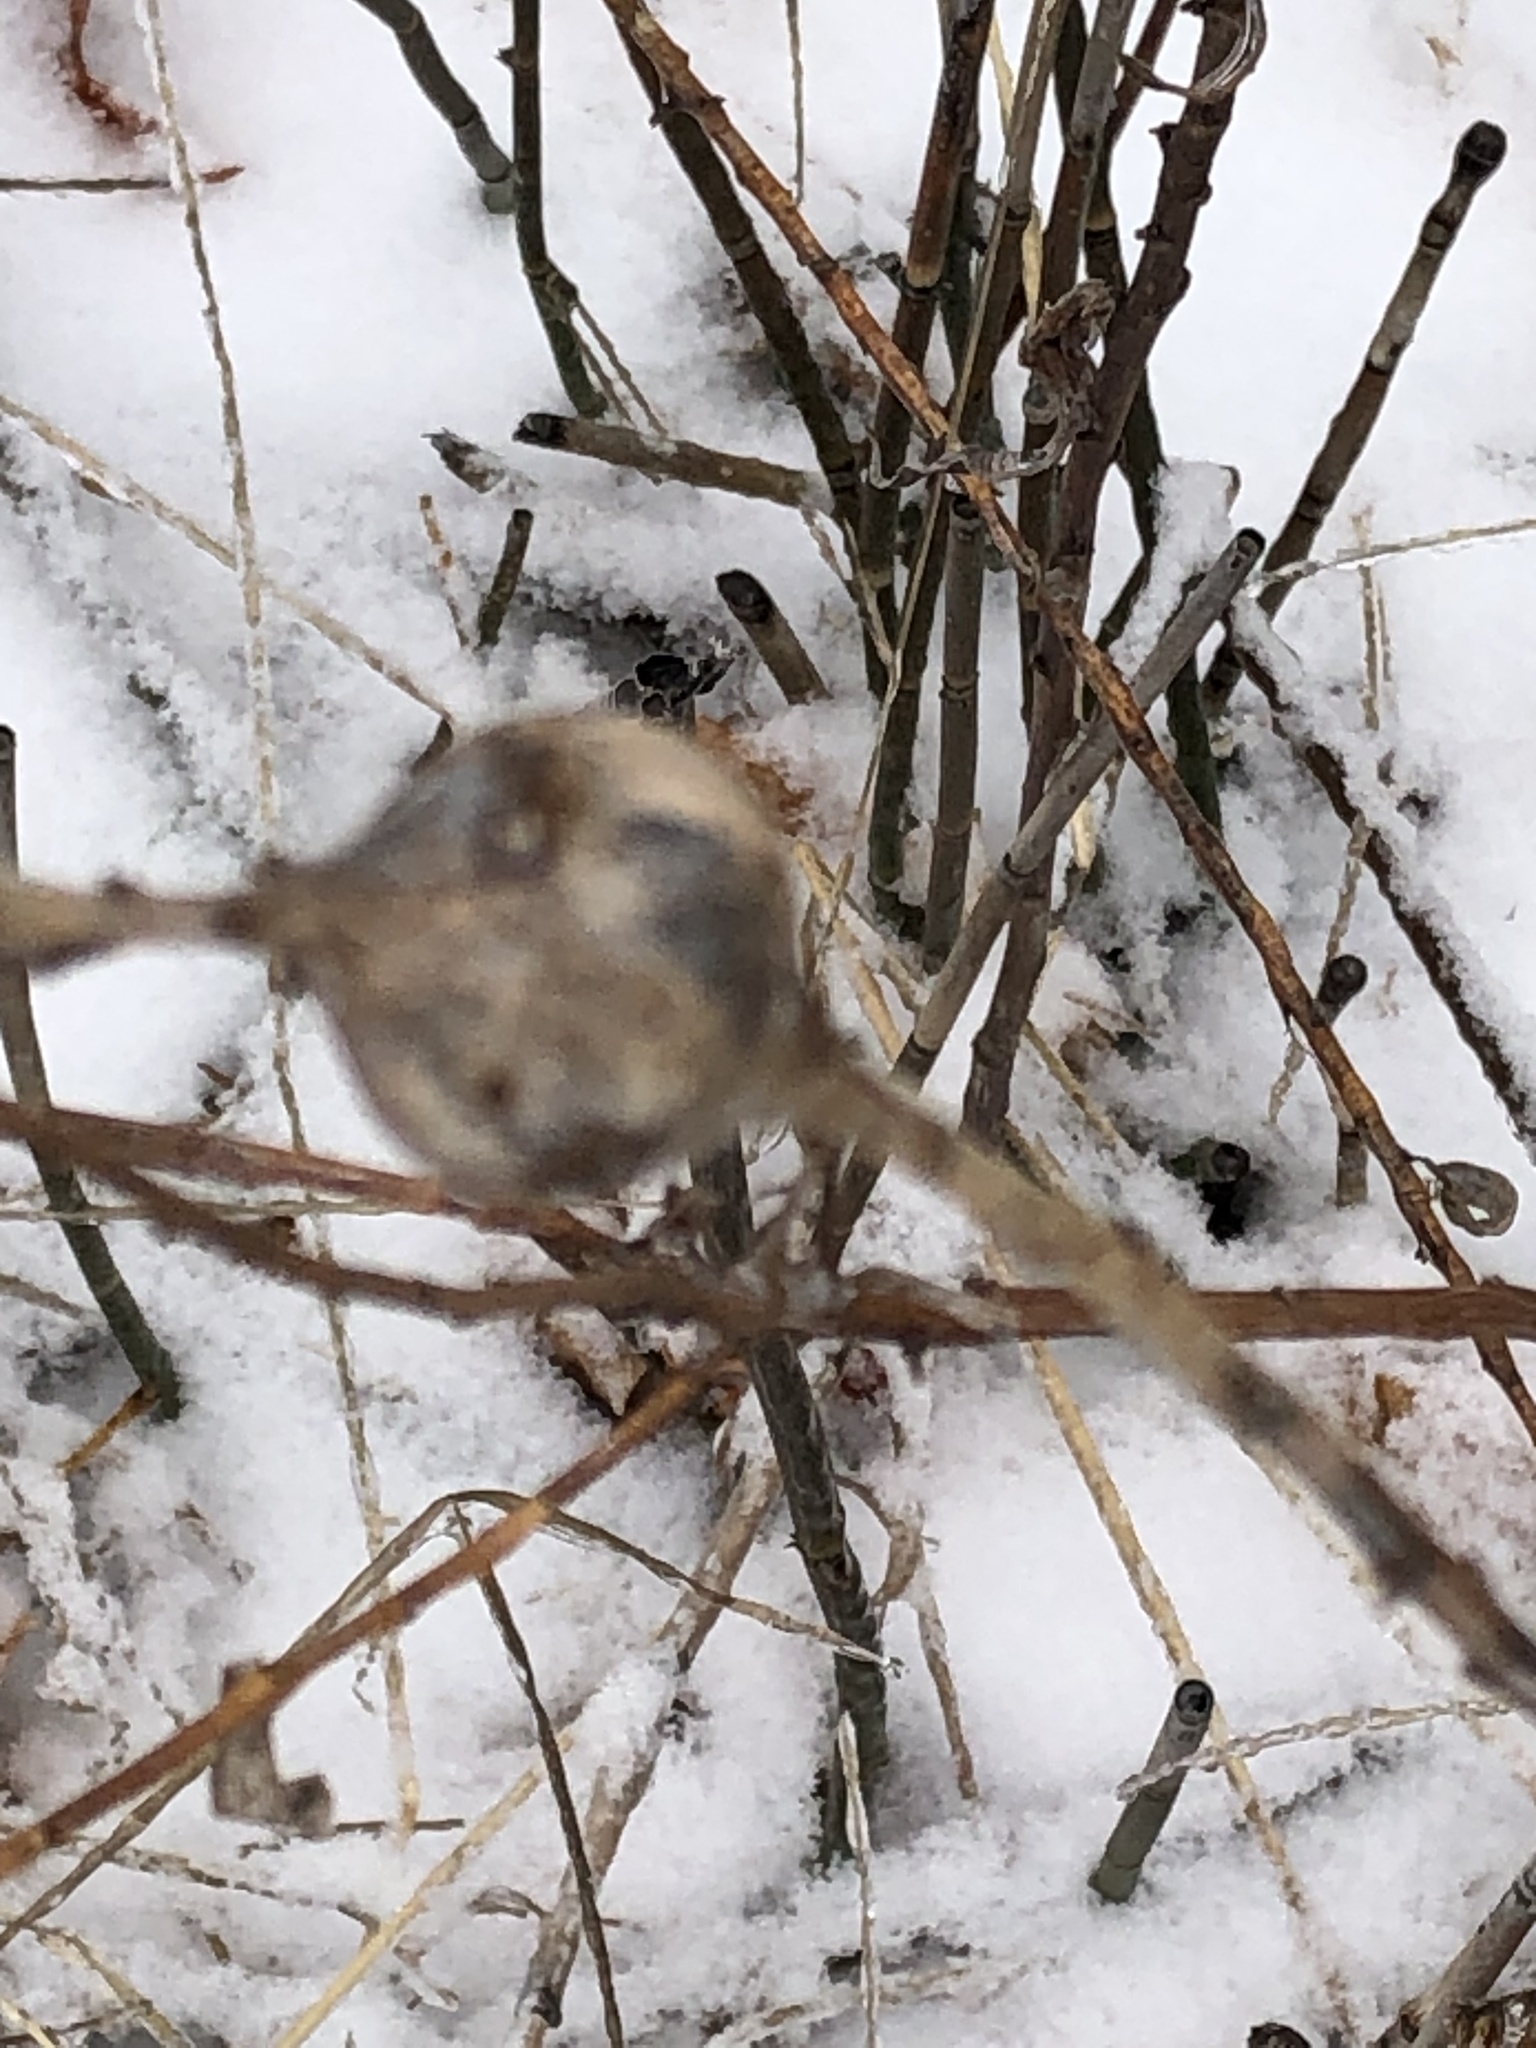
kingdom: Animalia
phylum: Arthropoda
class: Insecta
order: Diptera
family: Tephritidae
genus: Eurosta
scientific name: Eurosta solidaginis
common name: Goldenrod gall fly
